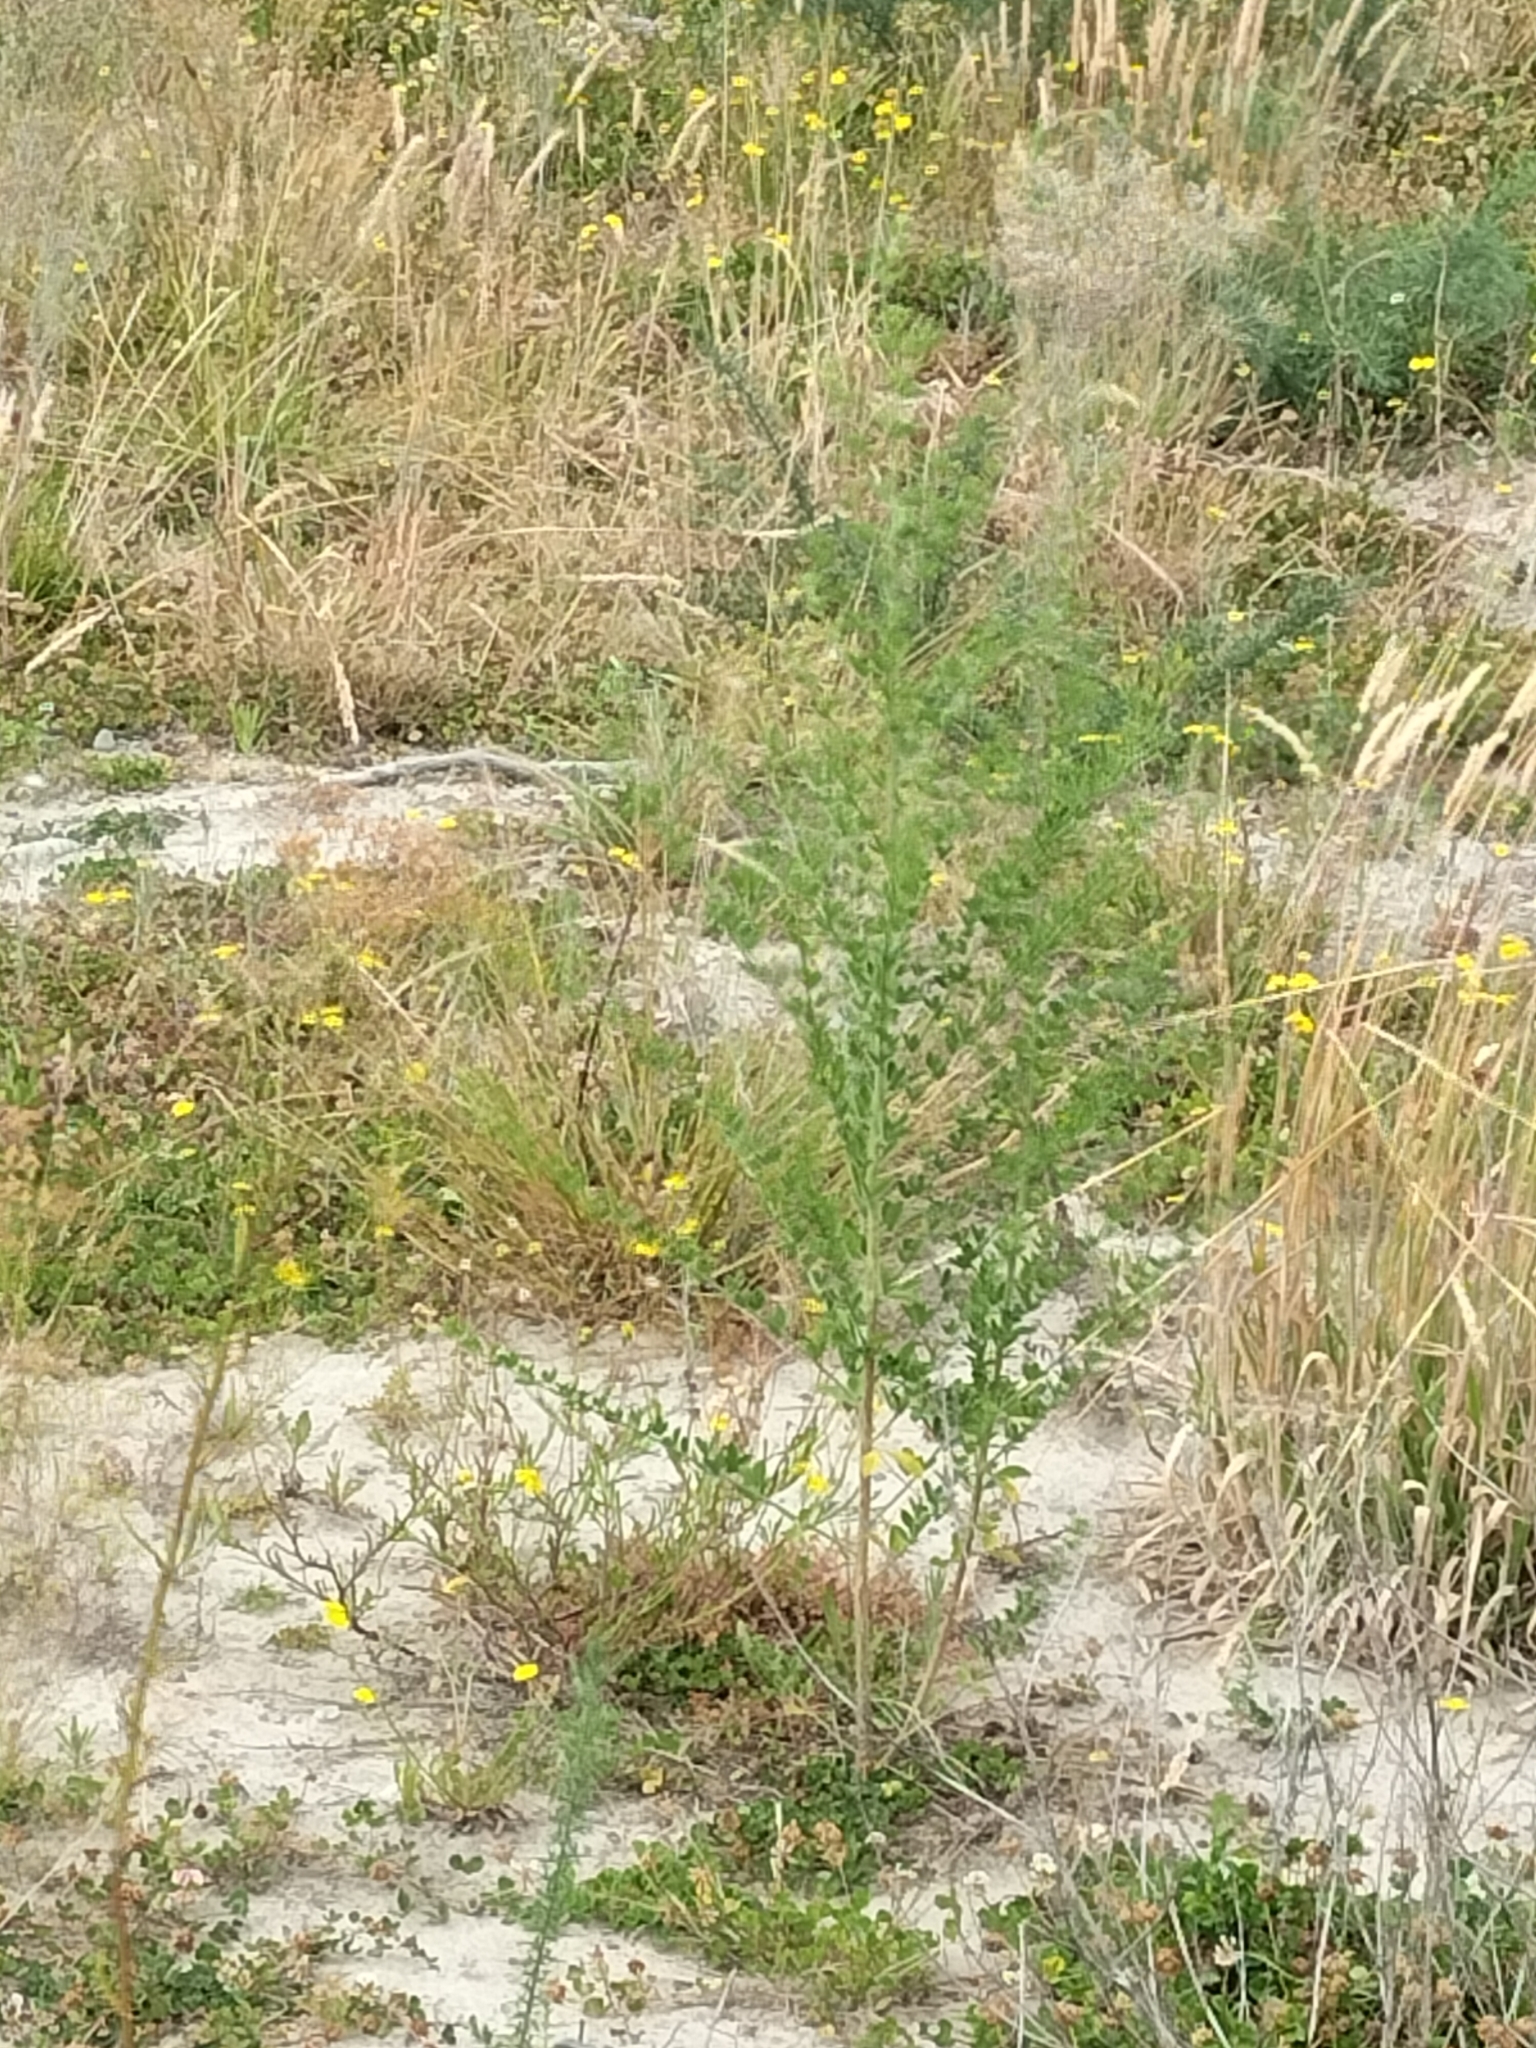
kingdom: Plantae
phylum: Tracheophyta
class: Magnoliopsida
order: Fabales
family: Fabaceae
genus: Genista
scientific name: Genista monspessulana
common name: Montpellier broom
